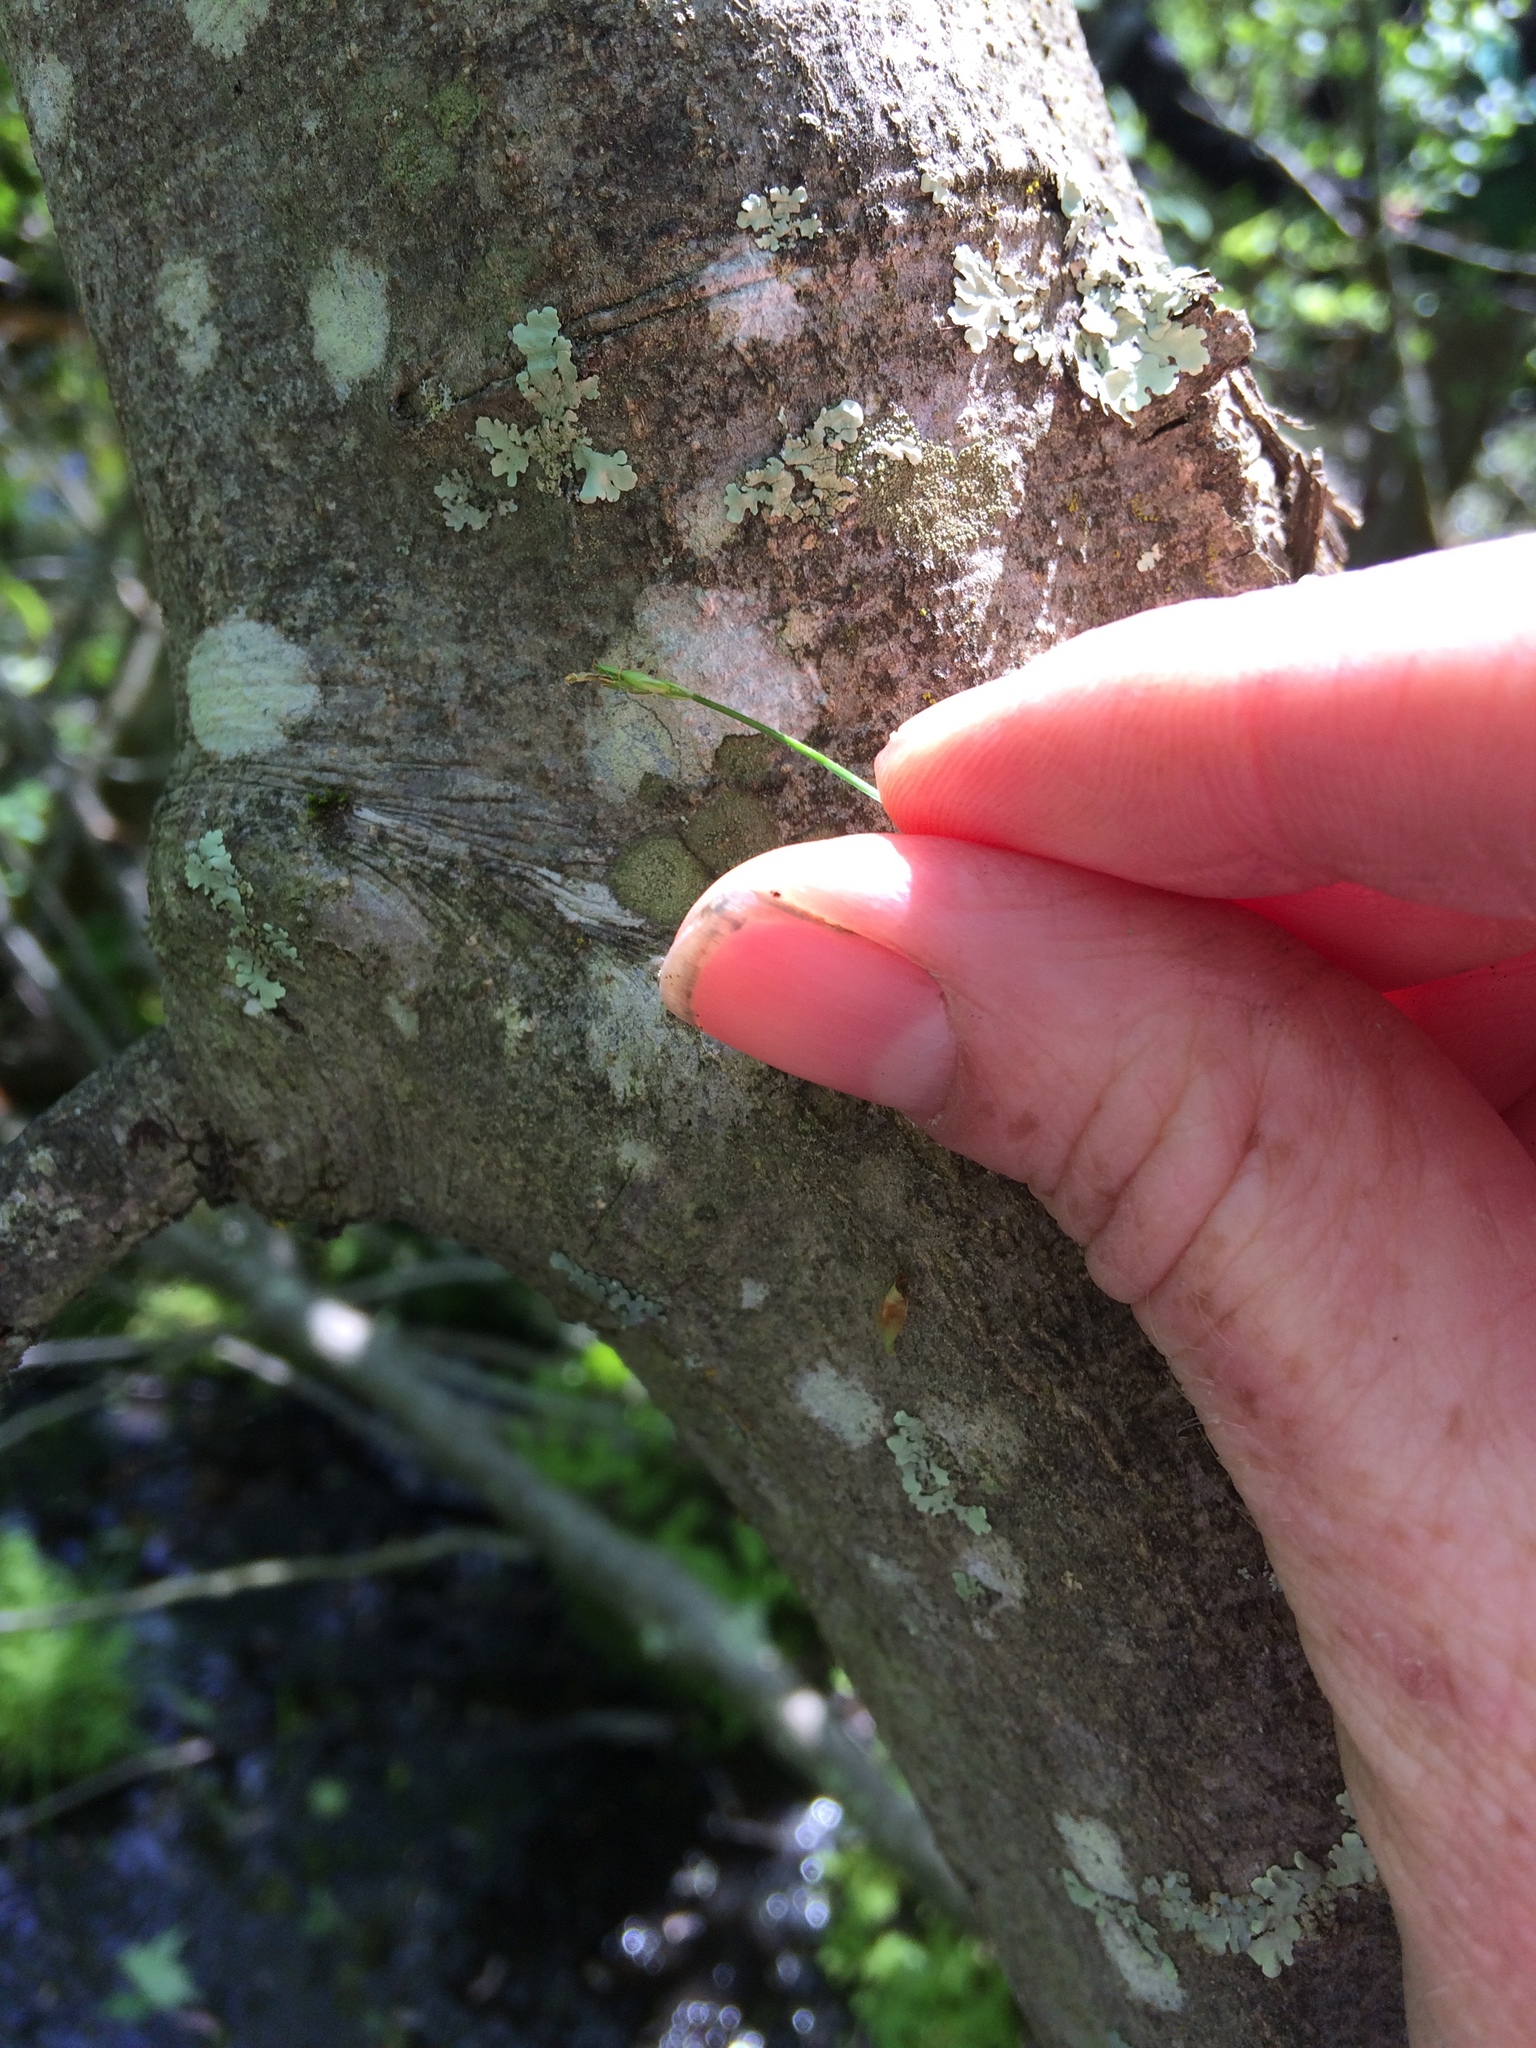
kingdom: Plantae
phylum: Tracheophyta
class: Liliopsida
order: Poales
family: Cyperaceae
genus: Carex
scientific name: Carex leptalea
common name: Bristly-stalked sedge
